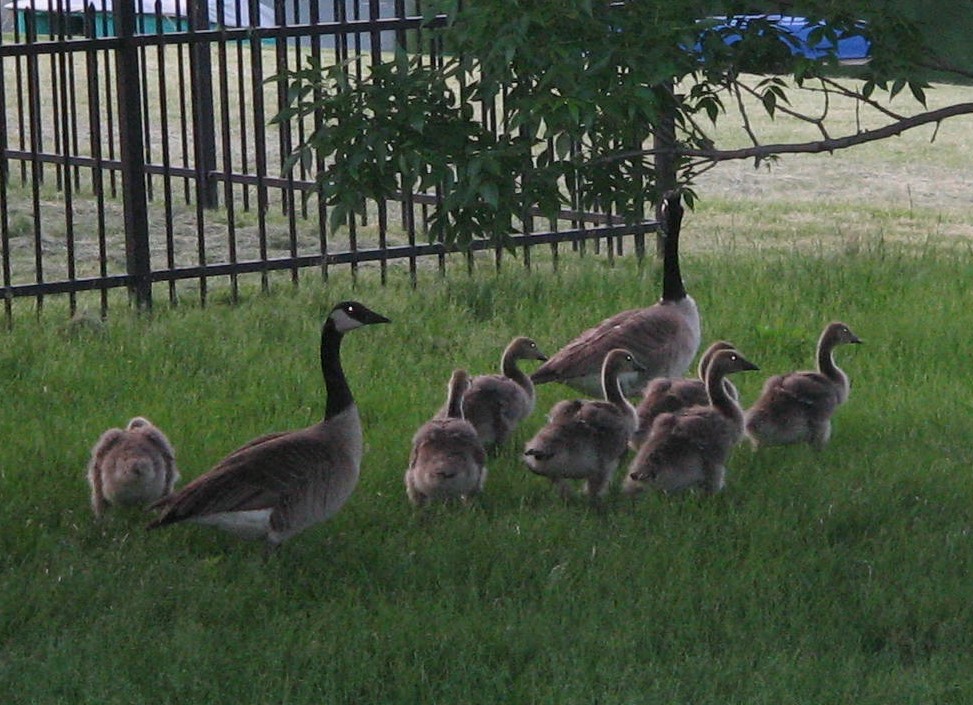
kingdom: Animalia
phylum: Chordata
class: Aves
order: Anseriformes
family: Anatidae
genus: Branta
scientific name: Branta canadensis
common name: Canada goose
